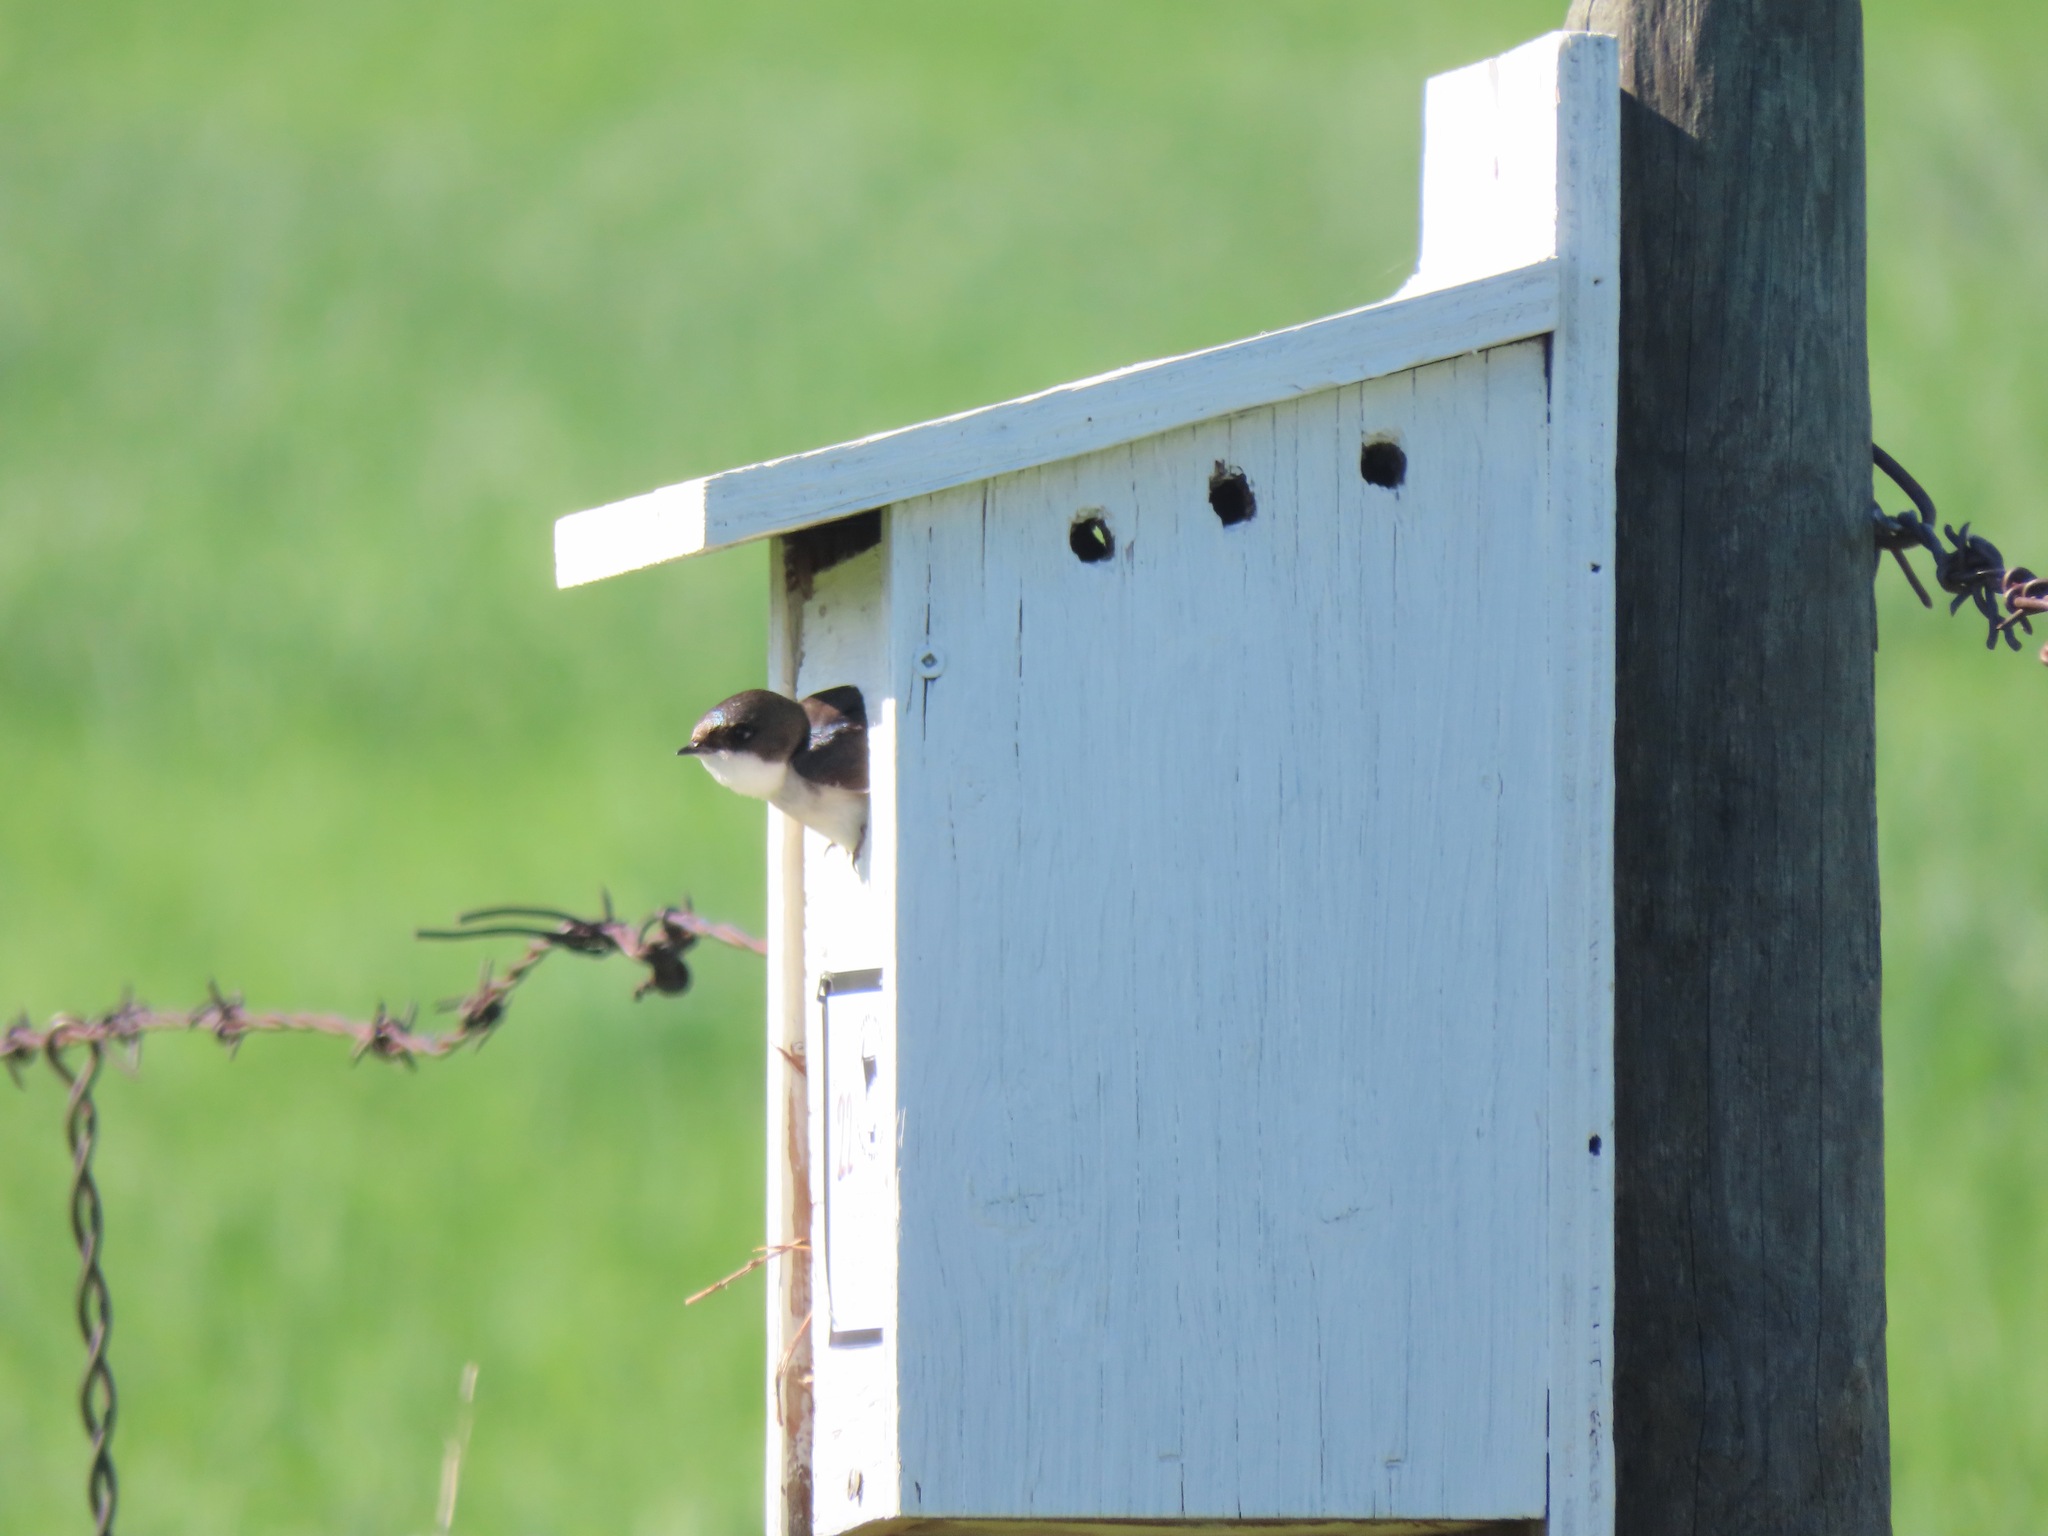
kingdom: Animalia
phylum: Chordata
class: Aves
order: Passeriformes
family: Hirundinidae
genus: Tachycineta
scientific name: Tachycineta bicolor
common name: Tree swallow
